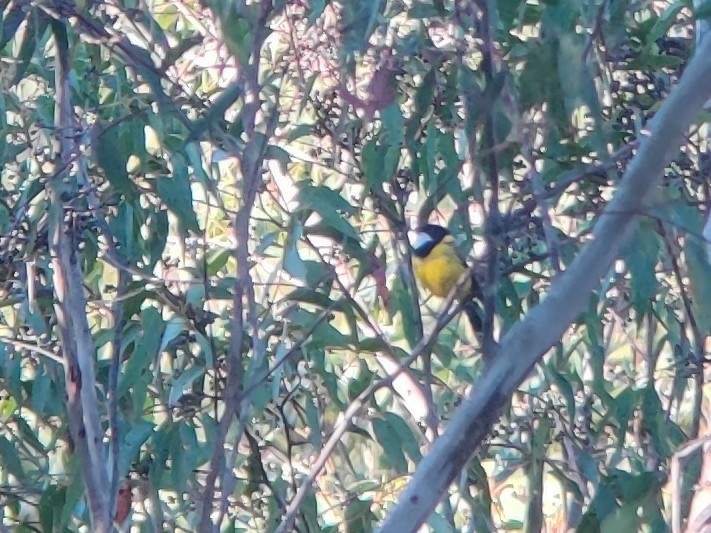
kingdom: Animalia
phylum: Chordata
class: Aves
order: Passeriformes
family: Pachycephalidae
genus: Pachycephala
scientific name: Pachycephala pectoralis
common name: Australian golden whistler
